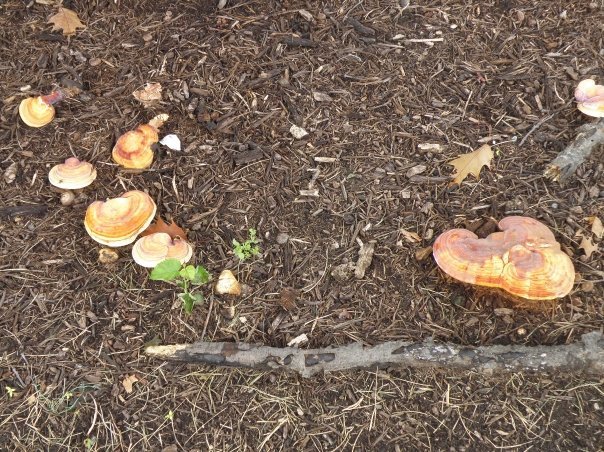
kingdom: Fungi
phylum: Basidiomycota
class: Agaricomycetes
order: Polyporales
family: Polyporaceae
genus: Ganoderma
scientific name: Ganoderma curtisii
